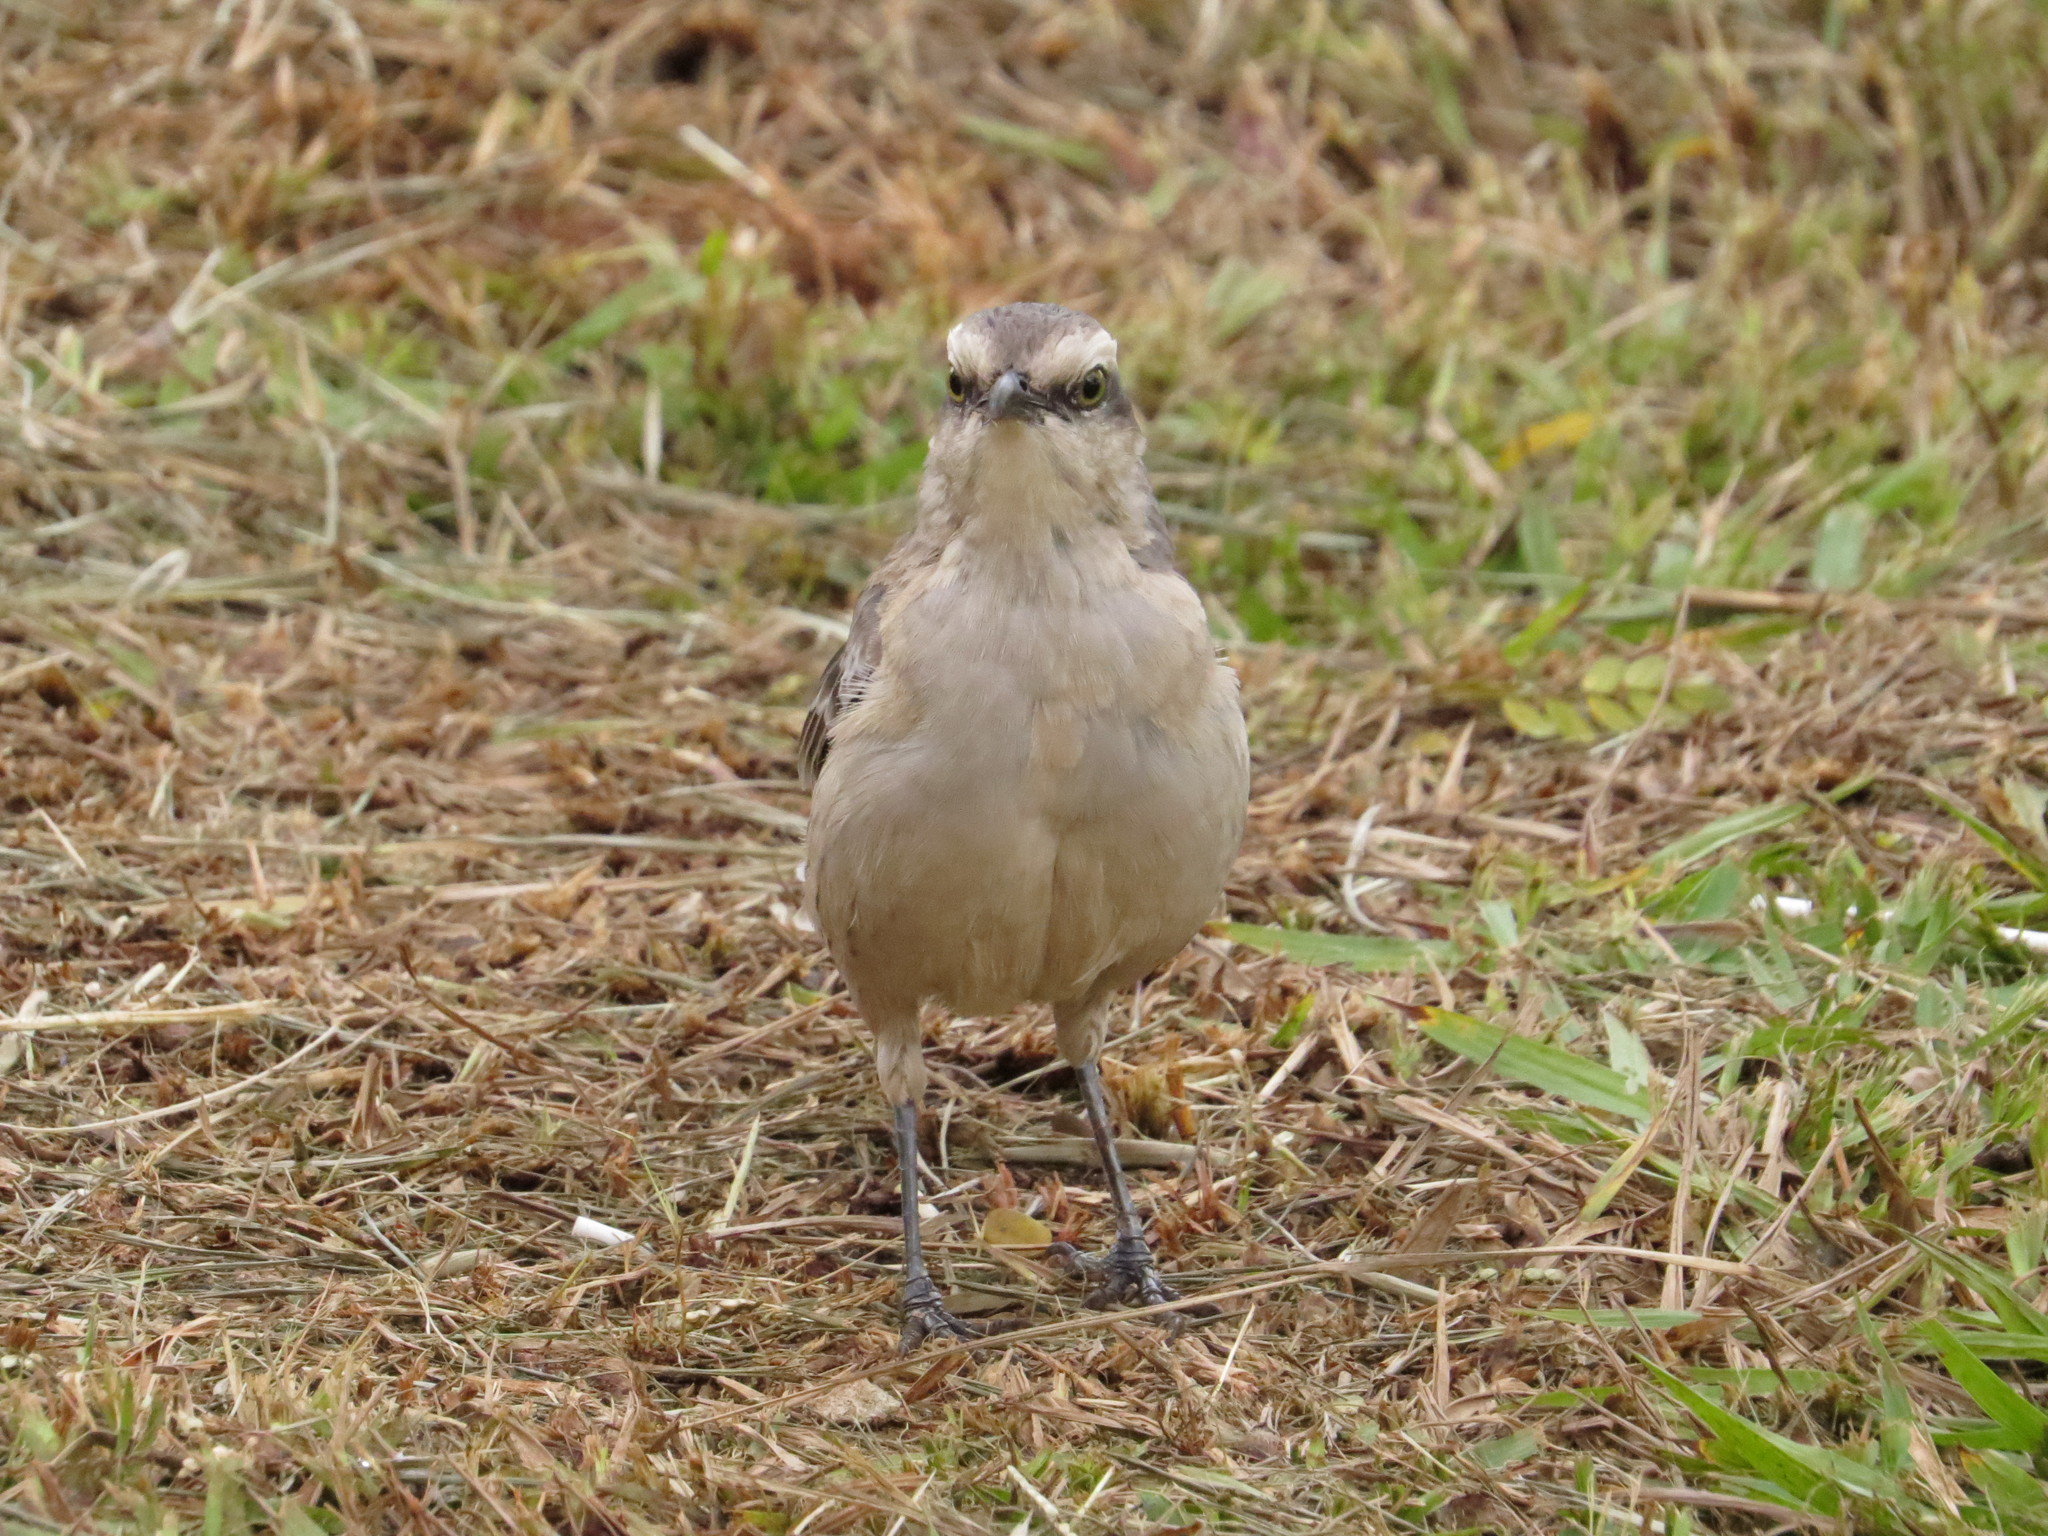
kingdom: Animalia
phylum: Chordata
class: Aves
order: Passeriformes
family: Mimidae
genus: Mimus
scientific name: Mimus saturninus
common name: Chalk-browed mockingbird
